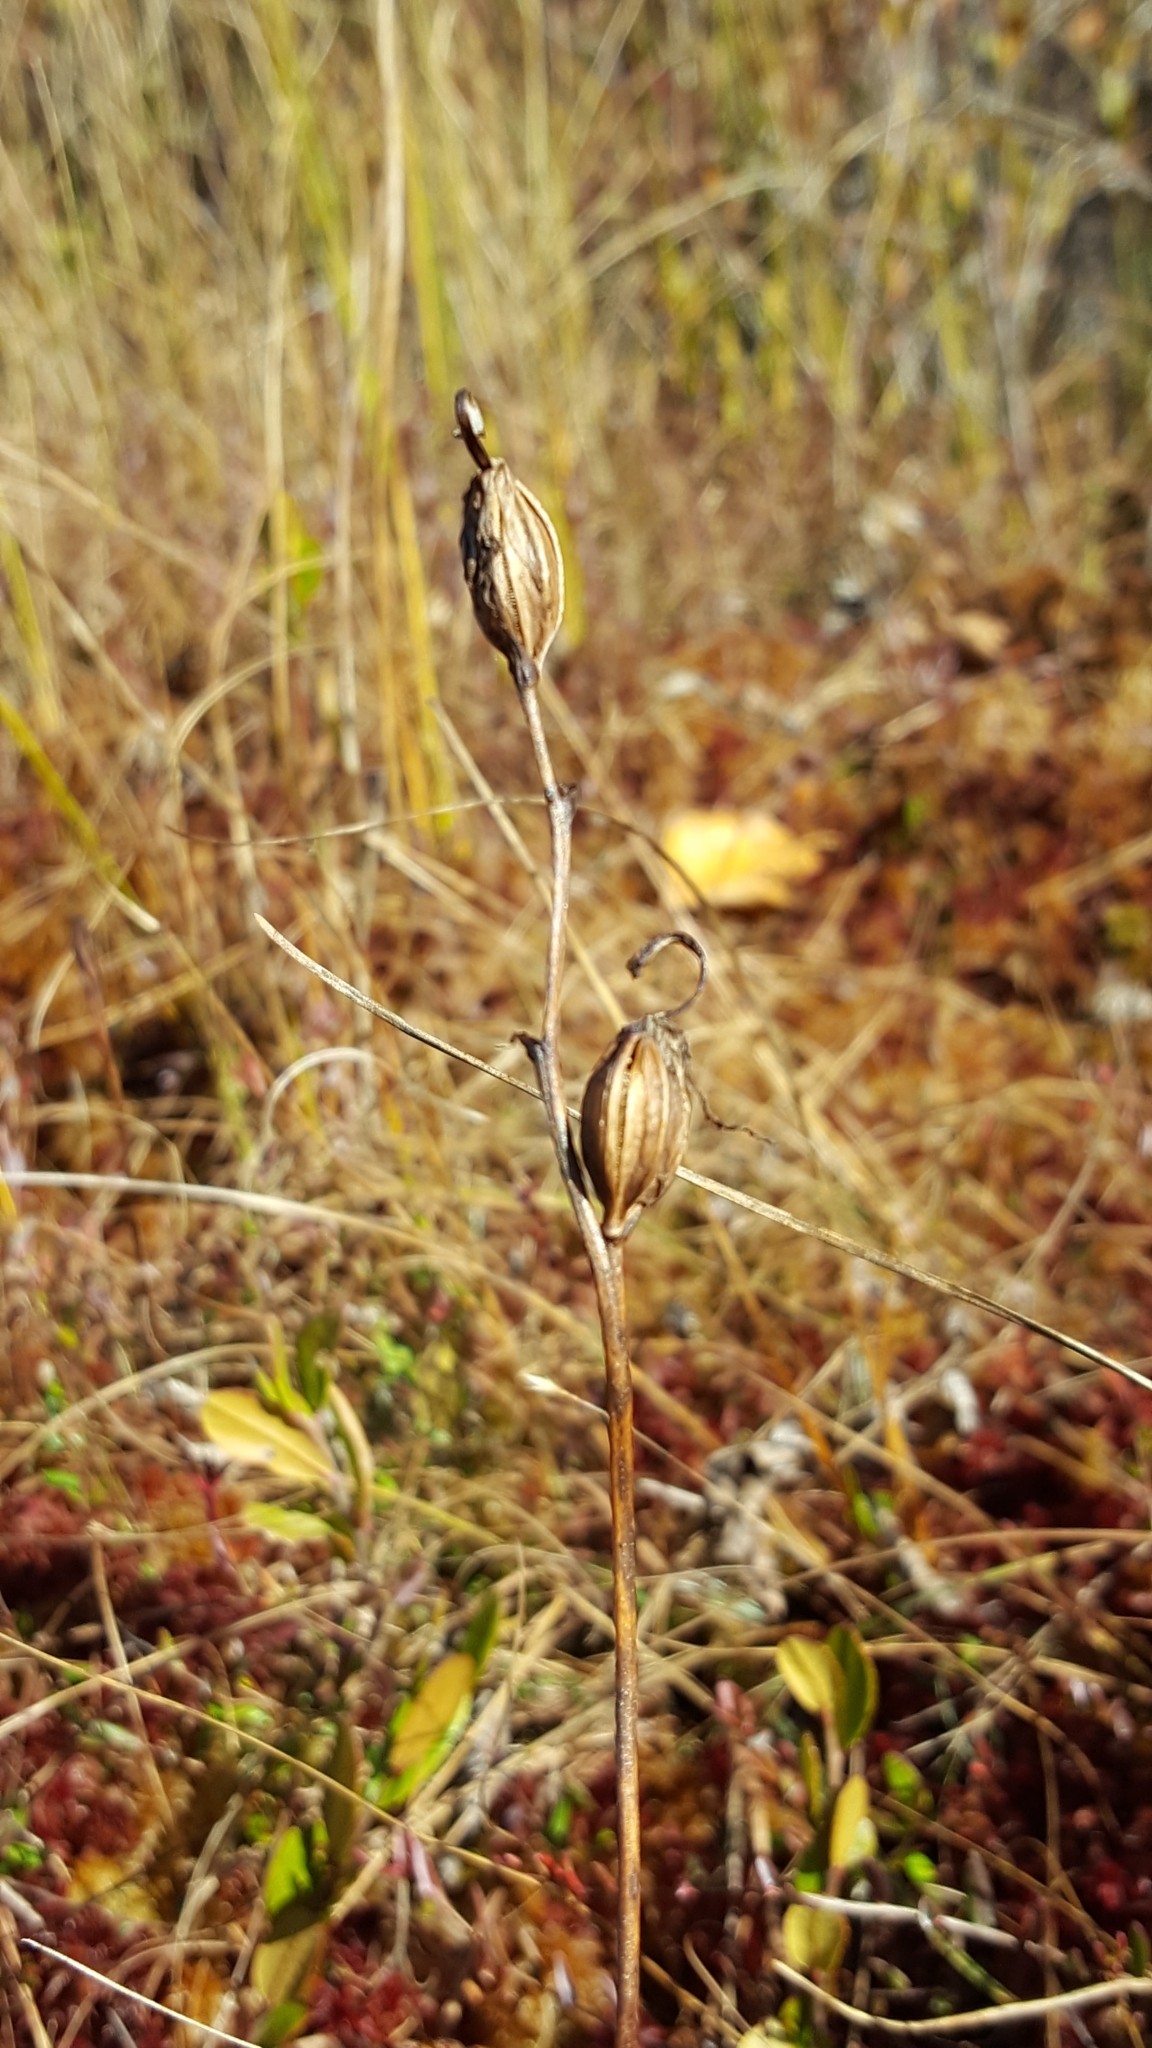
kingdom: Plantae
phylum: Tracheophyta
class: Liliopsida
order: Asparagales
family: Orchidaceae
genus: Calopogon
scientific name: Calopogon tuberosus
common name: Grass-pink
